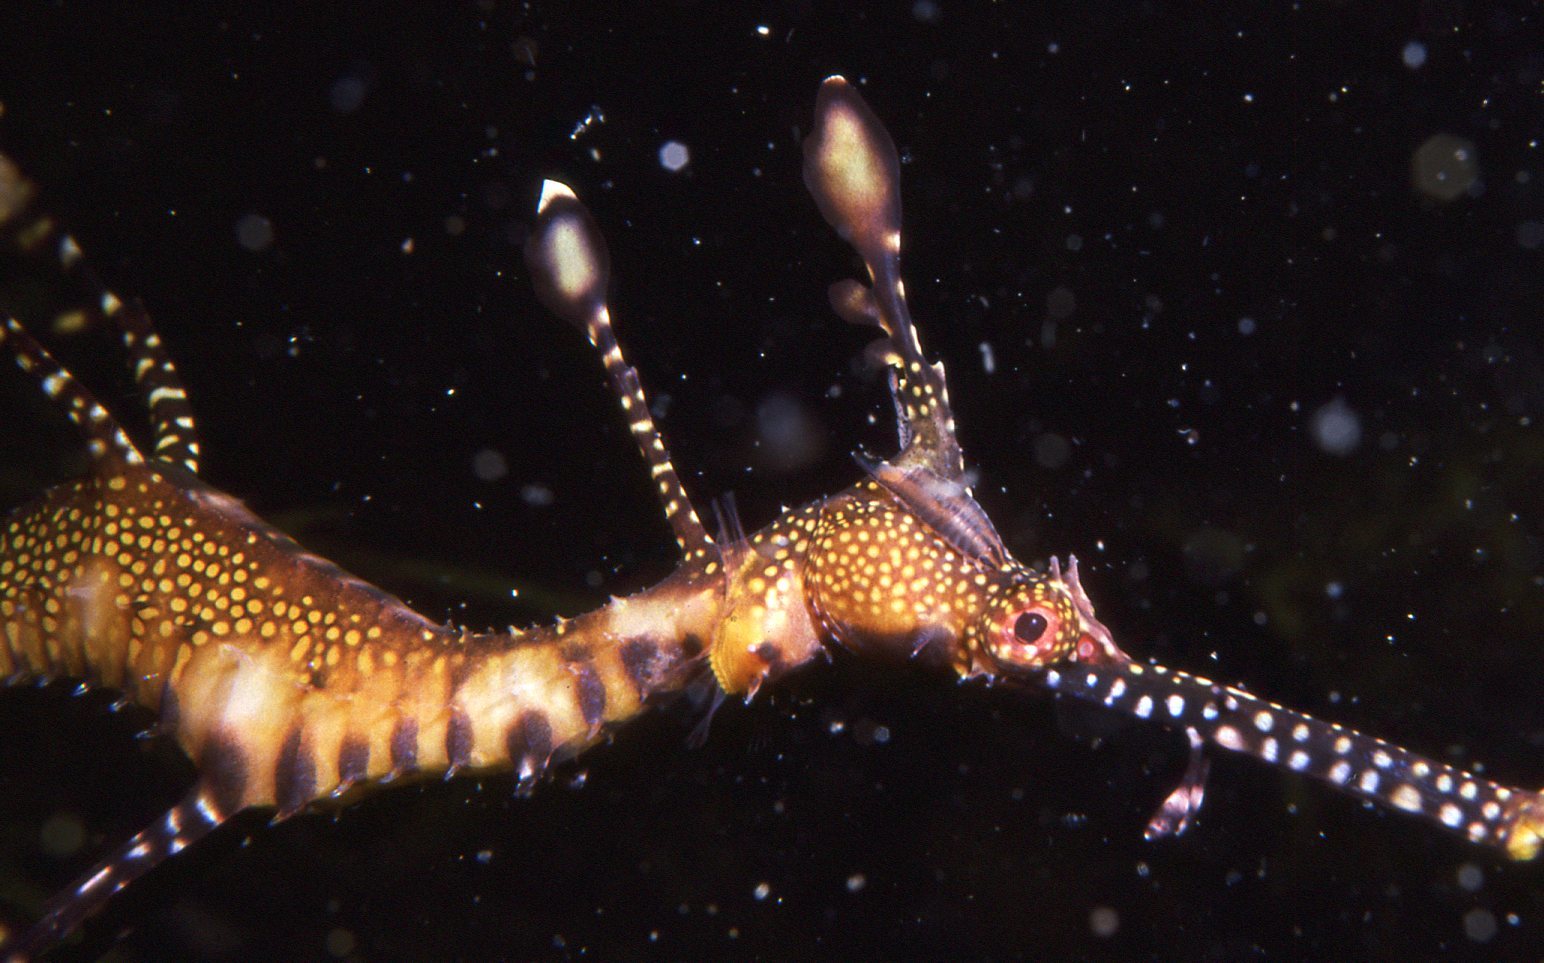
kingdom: Animalia
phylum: Chordata
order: Syngnathiformes
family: Syngnathidae
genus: Phyllopteryx
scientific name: Phyllopteryx taeniolatus
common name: Common seadragon
